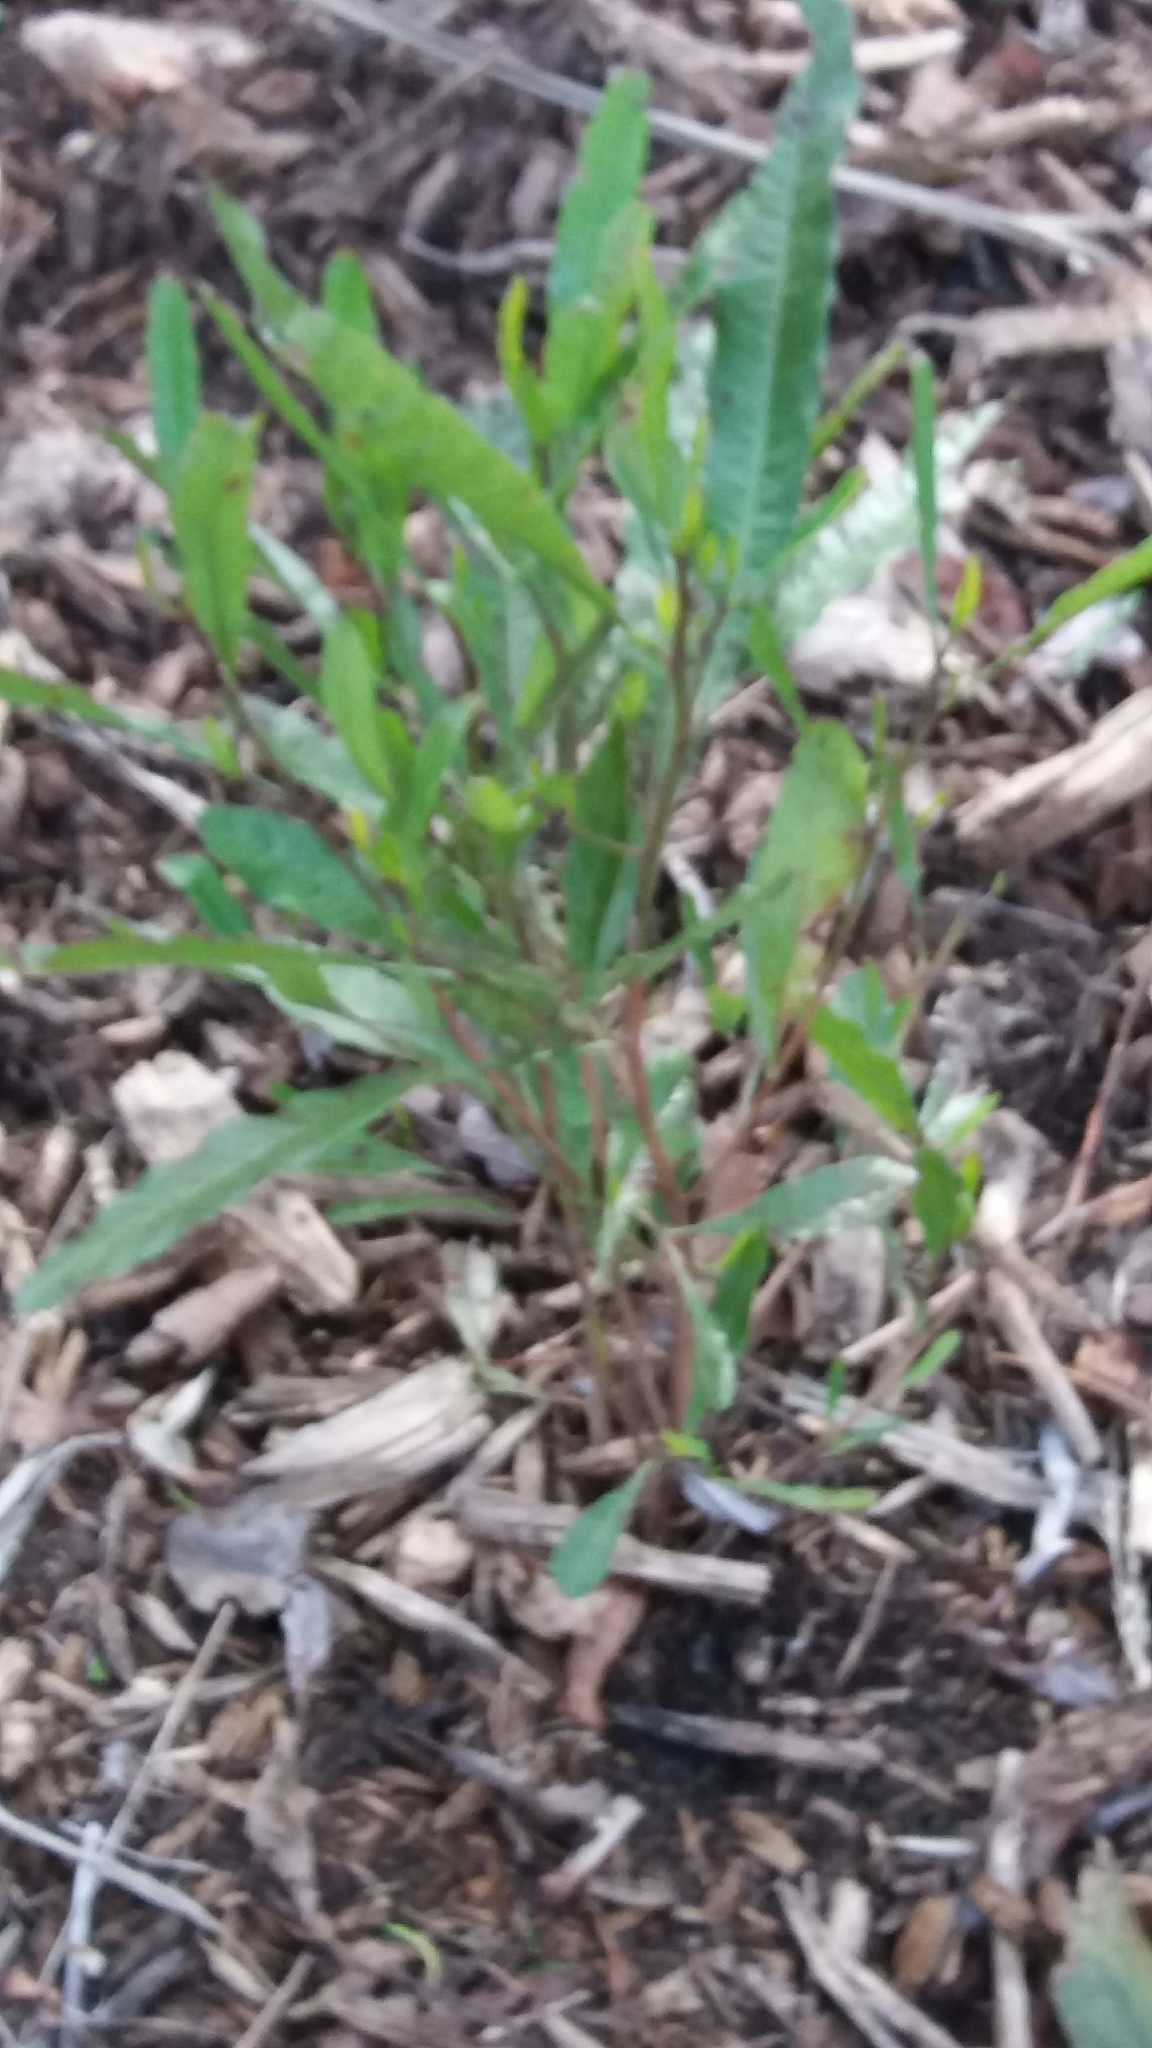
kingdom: Plantae
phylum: Tracheophyta
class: Magnoliopsida
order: Sapindales
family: Sapindaceae
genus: Dodonaea
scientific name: Dodonaea viscosa
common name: Hopbush
